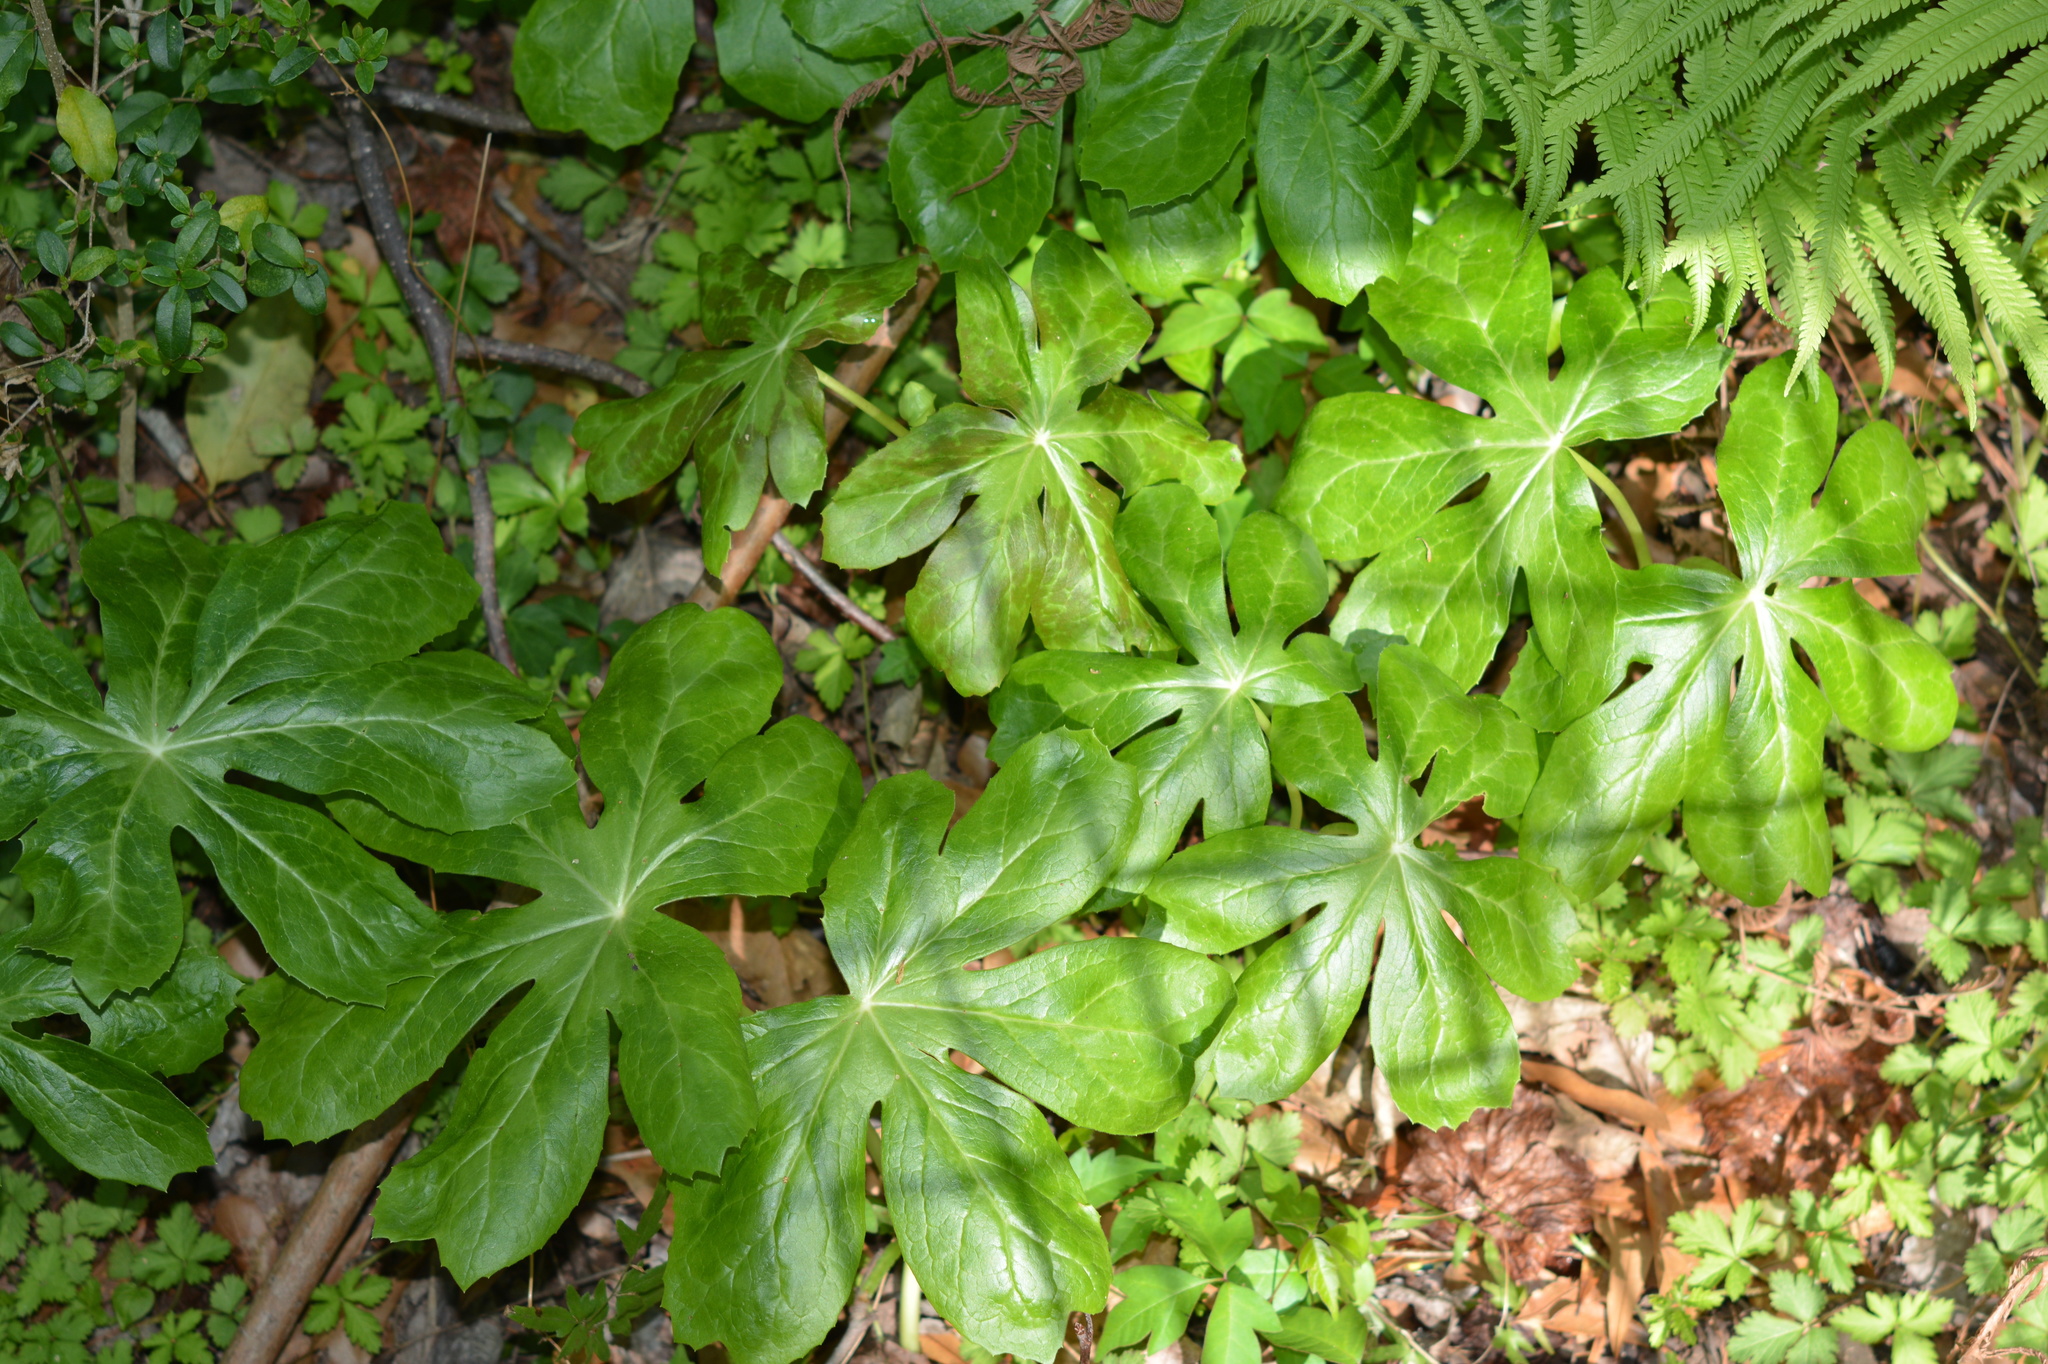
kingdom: Plantae
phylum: Tracheophyta
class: Magnoliopsida
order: Ranunculales
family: Berberidaceae
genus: Podophyllum
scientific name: Podophyllum peltatum
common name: Wild mandrake
